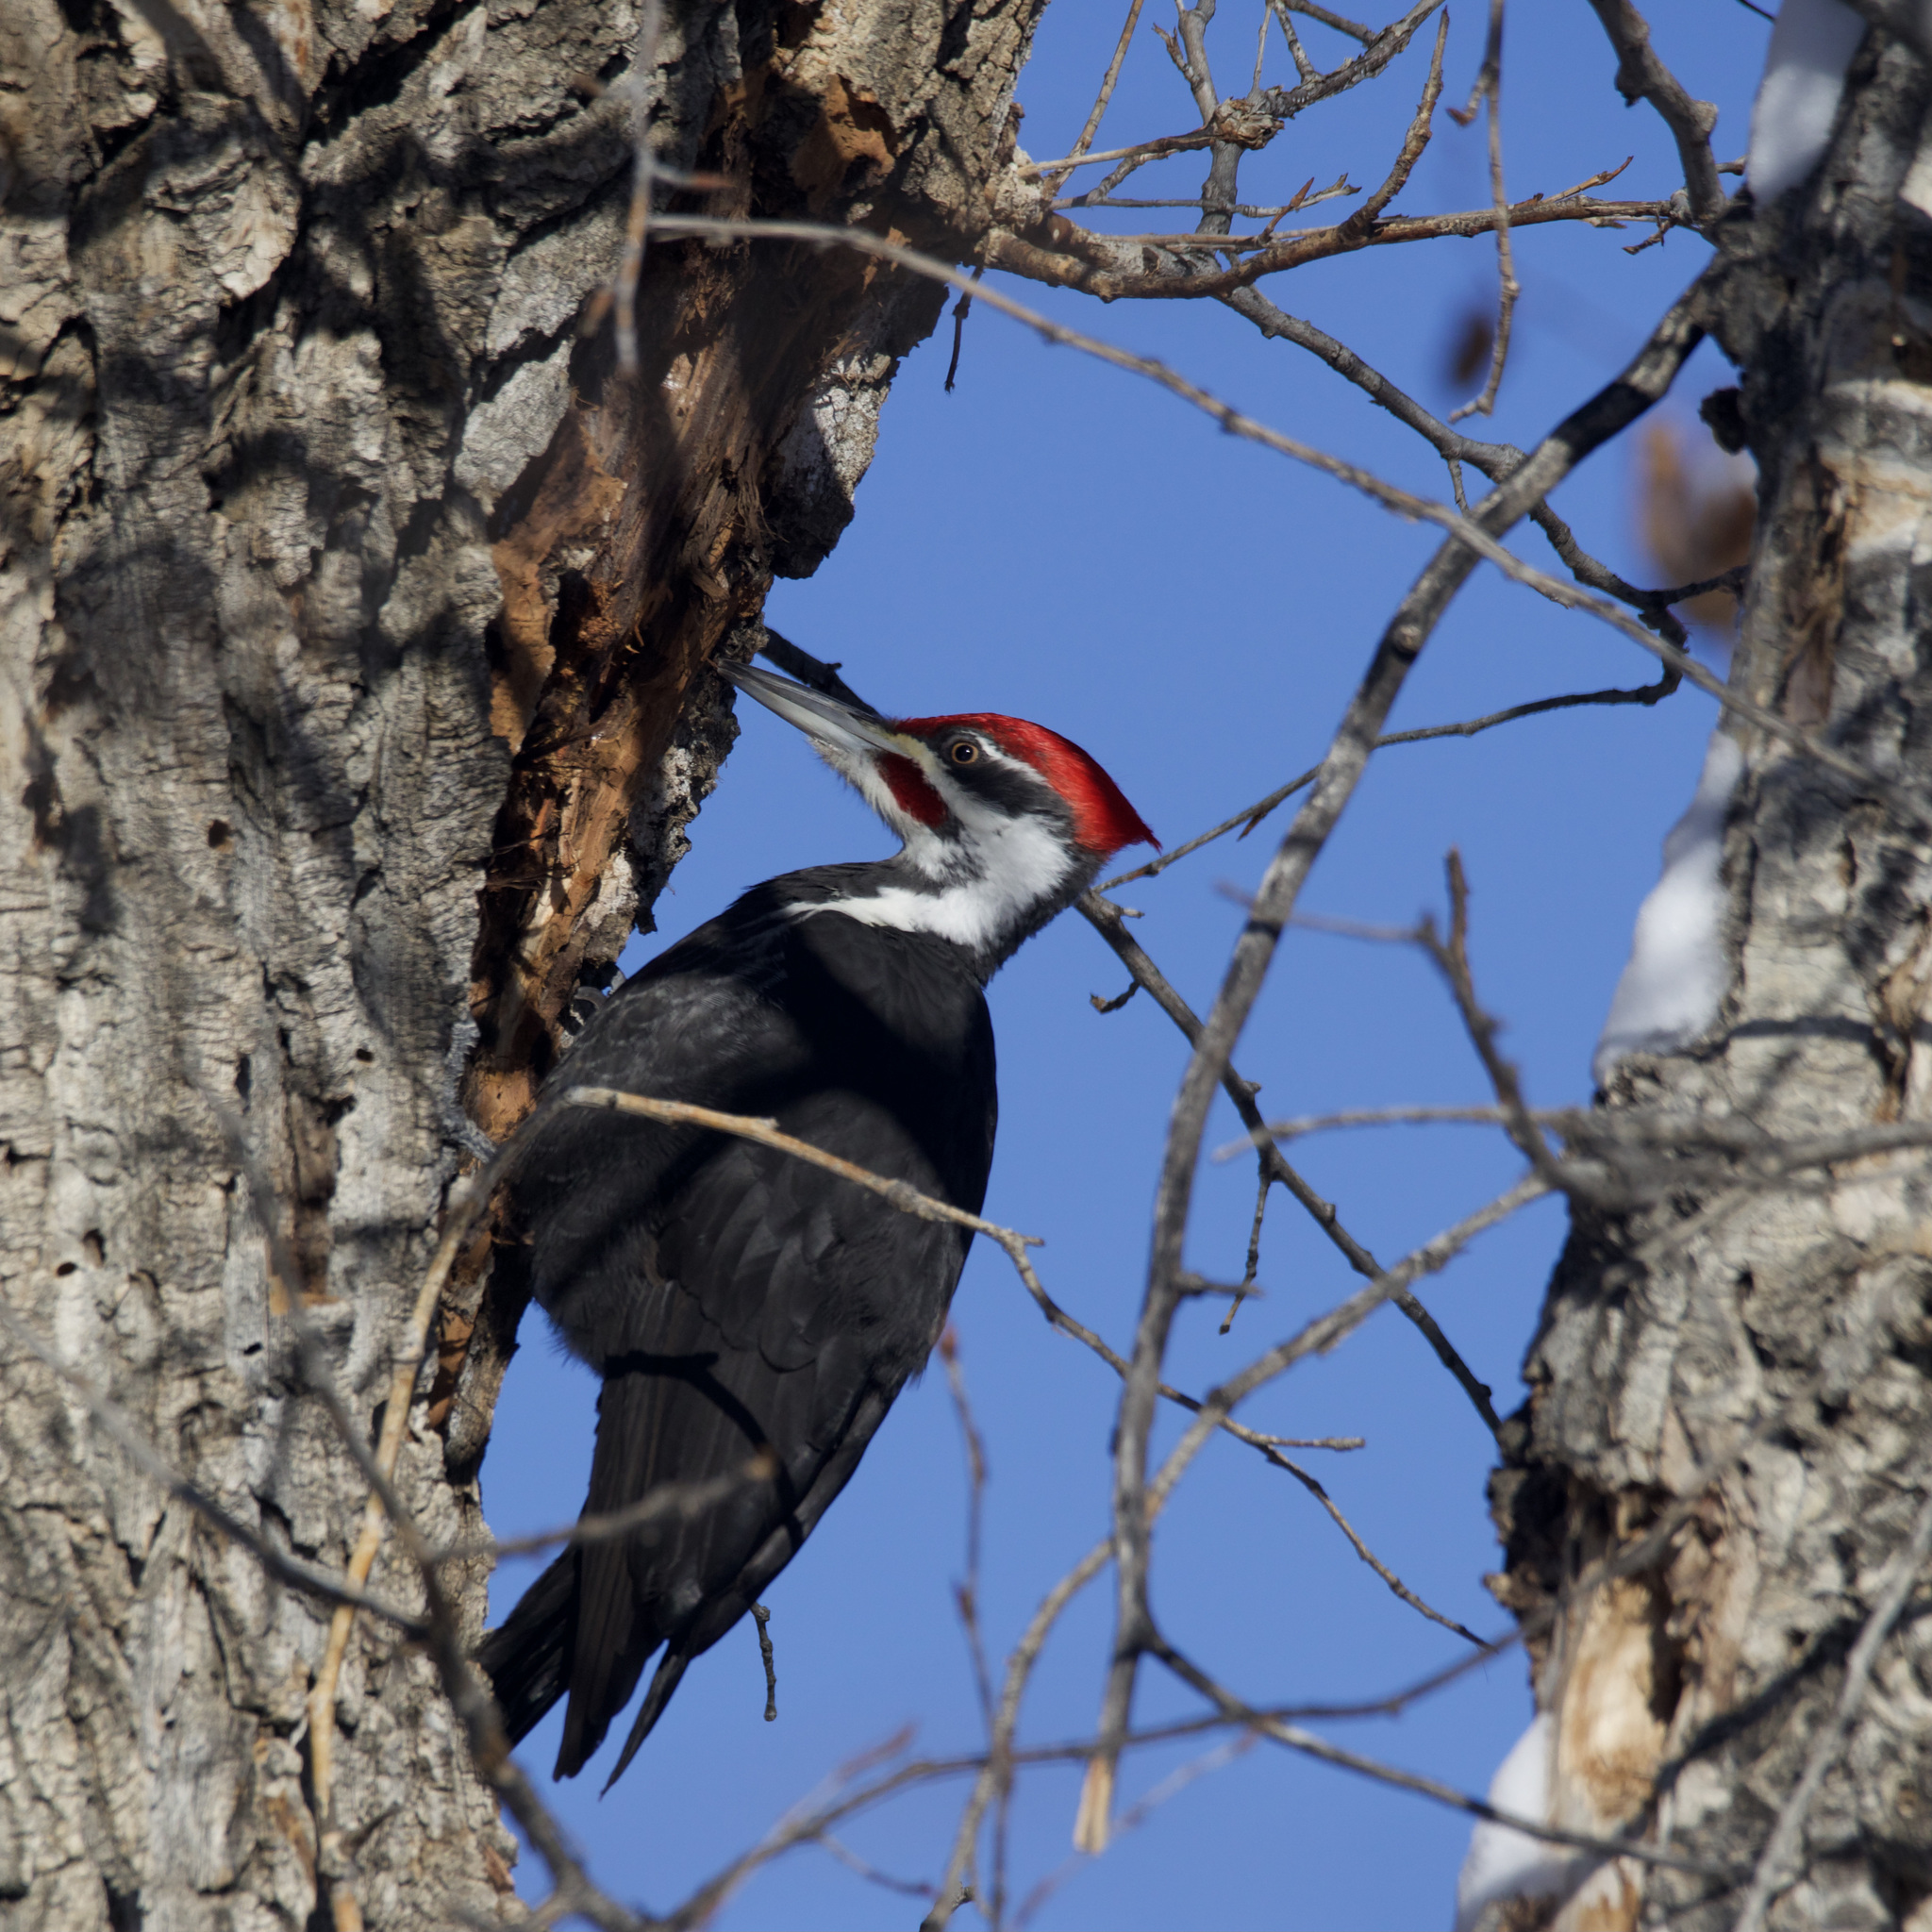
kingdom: Animalia
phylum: Chordata
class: Aves
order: Piciformes
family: Picidae
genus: Dryocopus
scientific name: Dryocopus pileatus
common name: Pileated woodpecker
